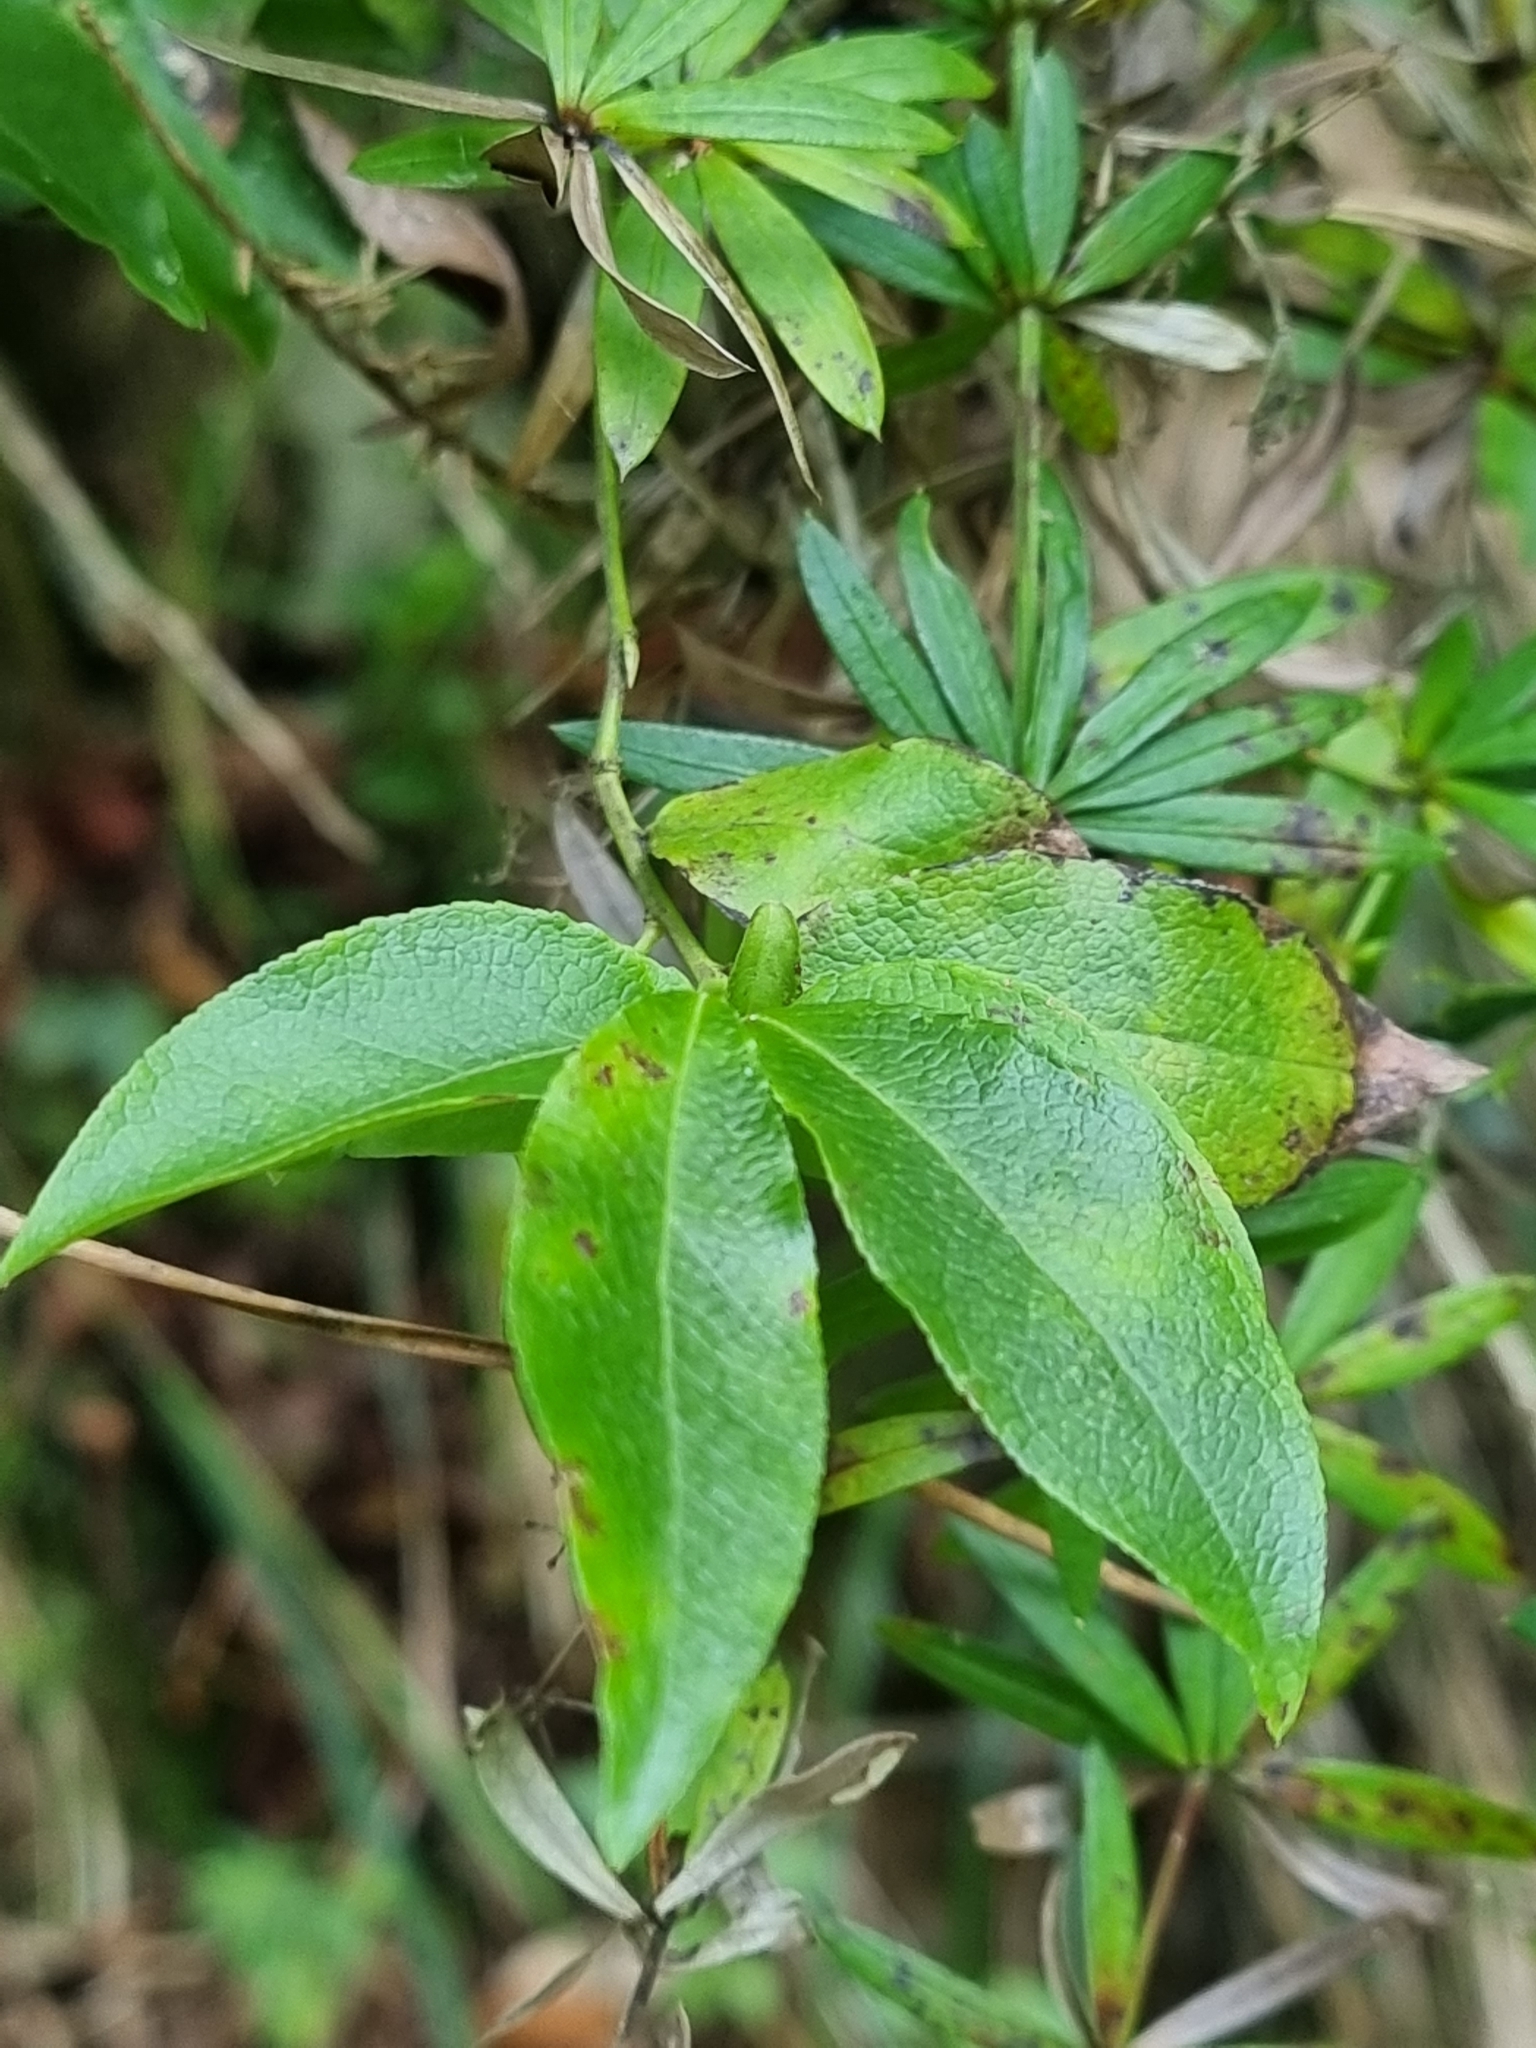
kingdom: Plantae
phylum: Tracheophyta
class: Magnoliopsida
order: Ericales
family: Ericaceae
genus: Vaccinium
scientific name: Vaccinium padifolium
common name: Madeiran blueberry
